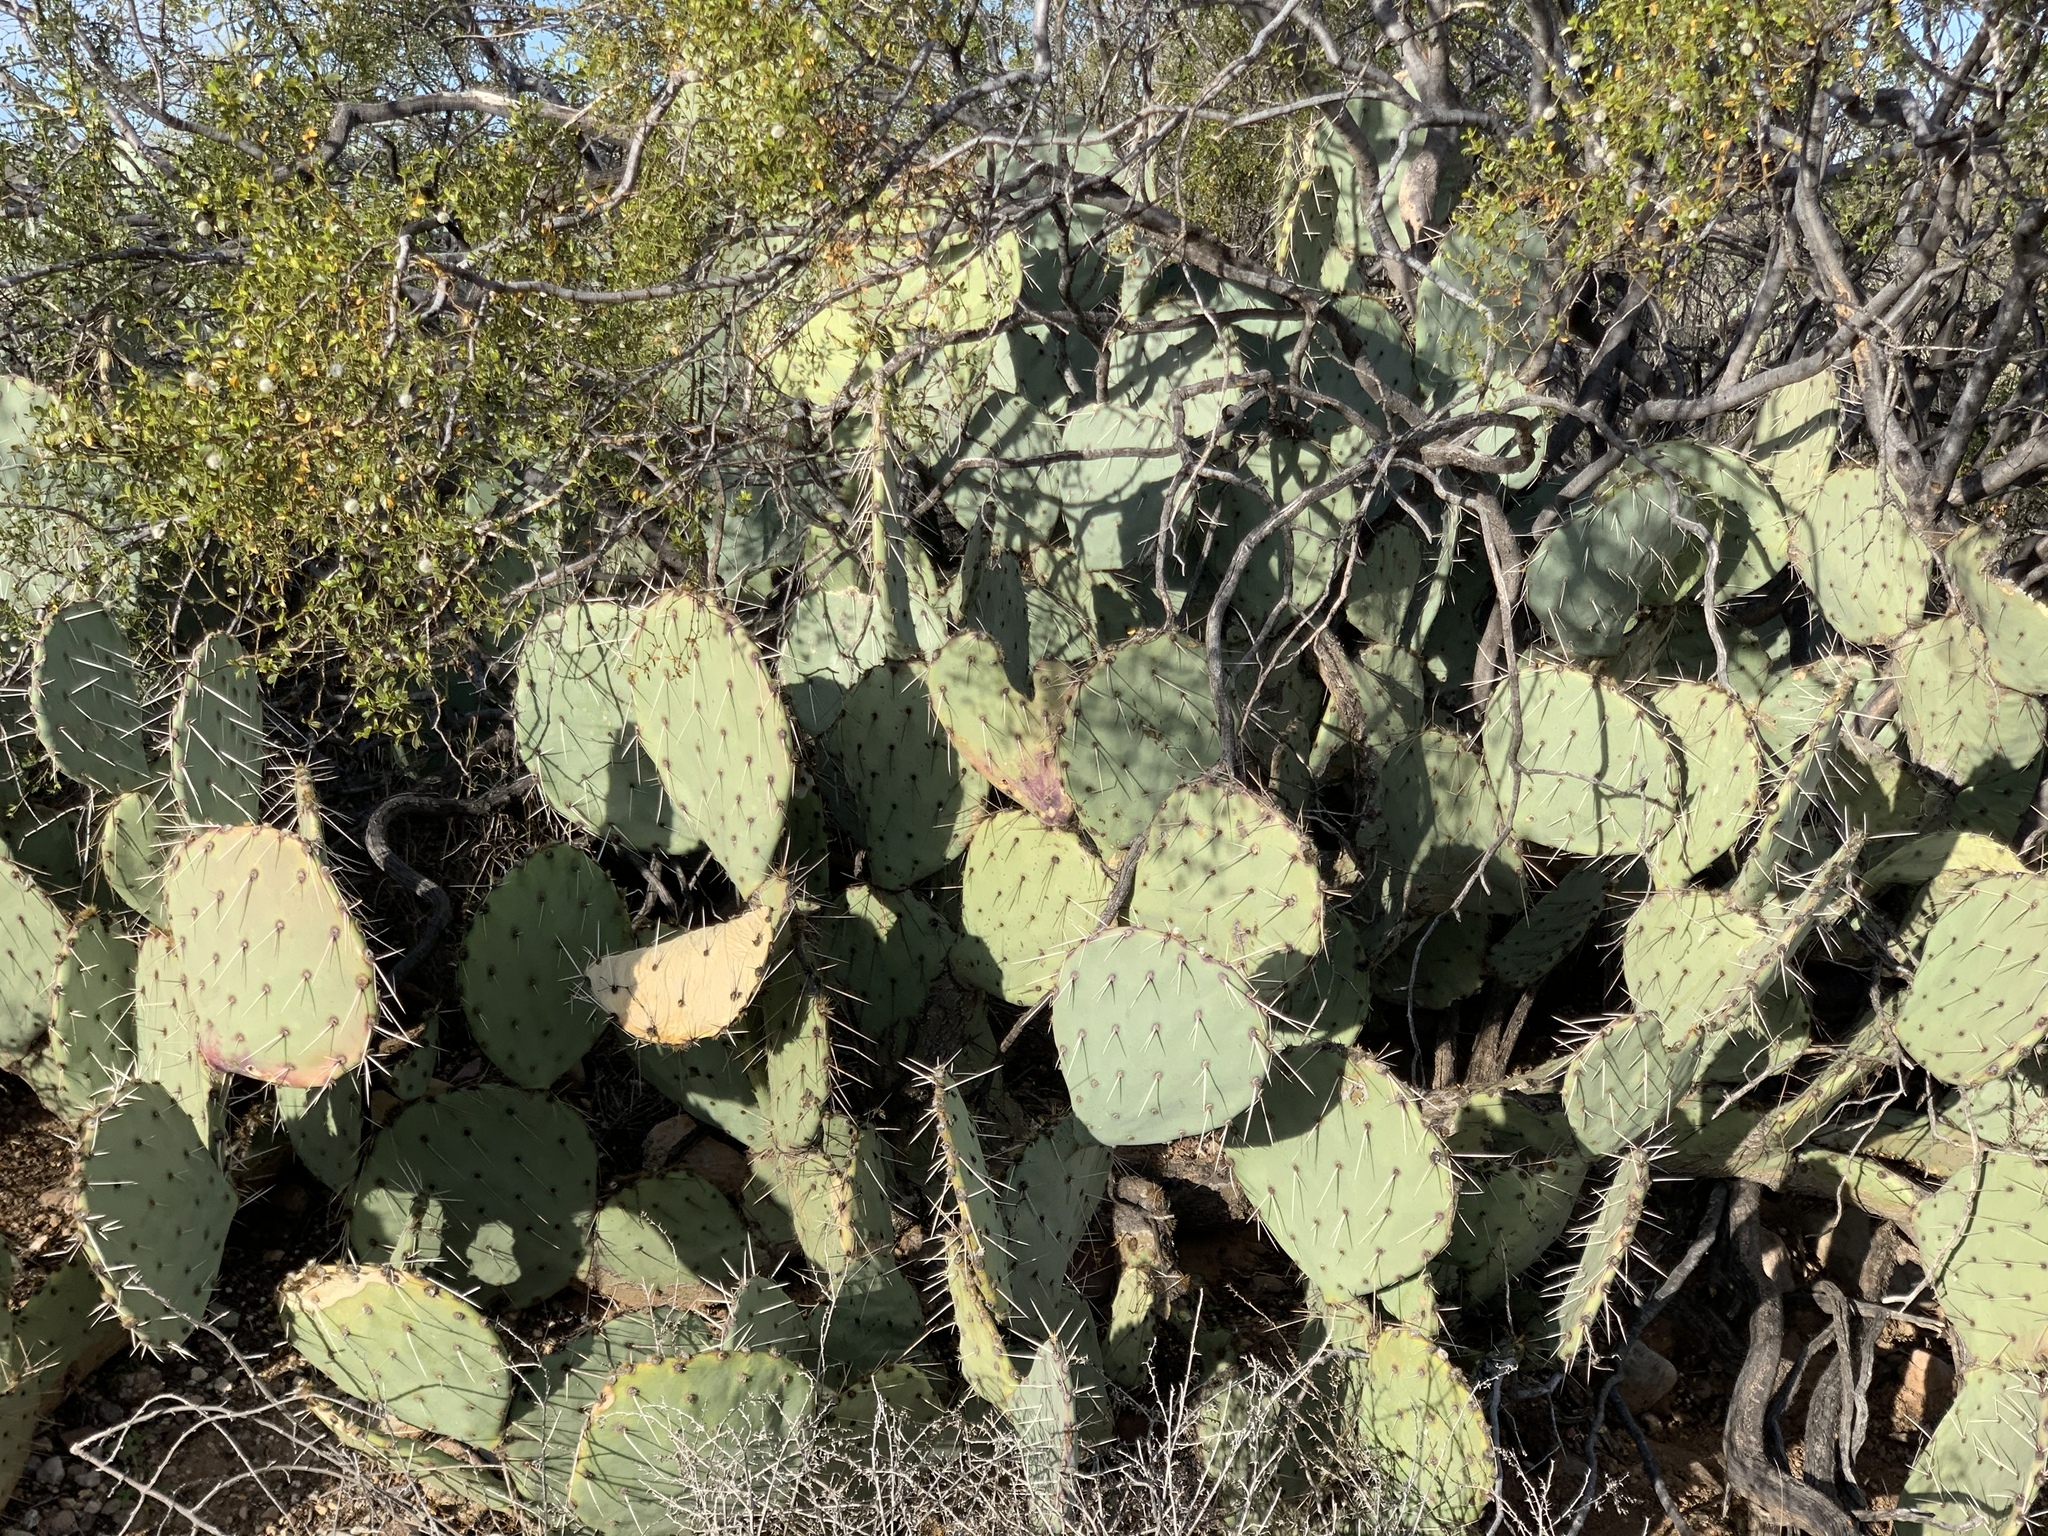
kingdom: Plantae
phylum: Tracheophyta
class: Magnoliopsida
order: Caryophyllales
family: Cactaceae
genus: Opuntia
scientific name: Opuntia engelmannii
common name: Cactus-apple
